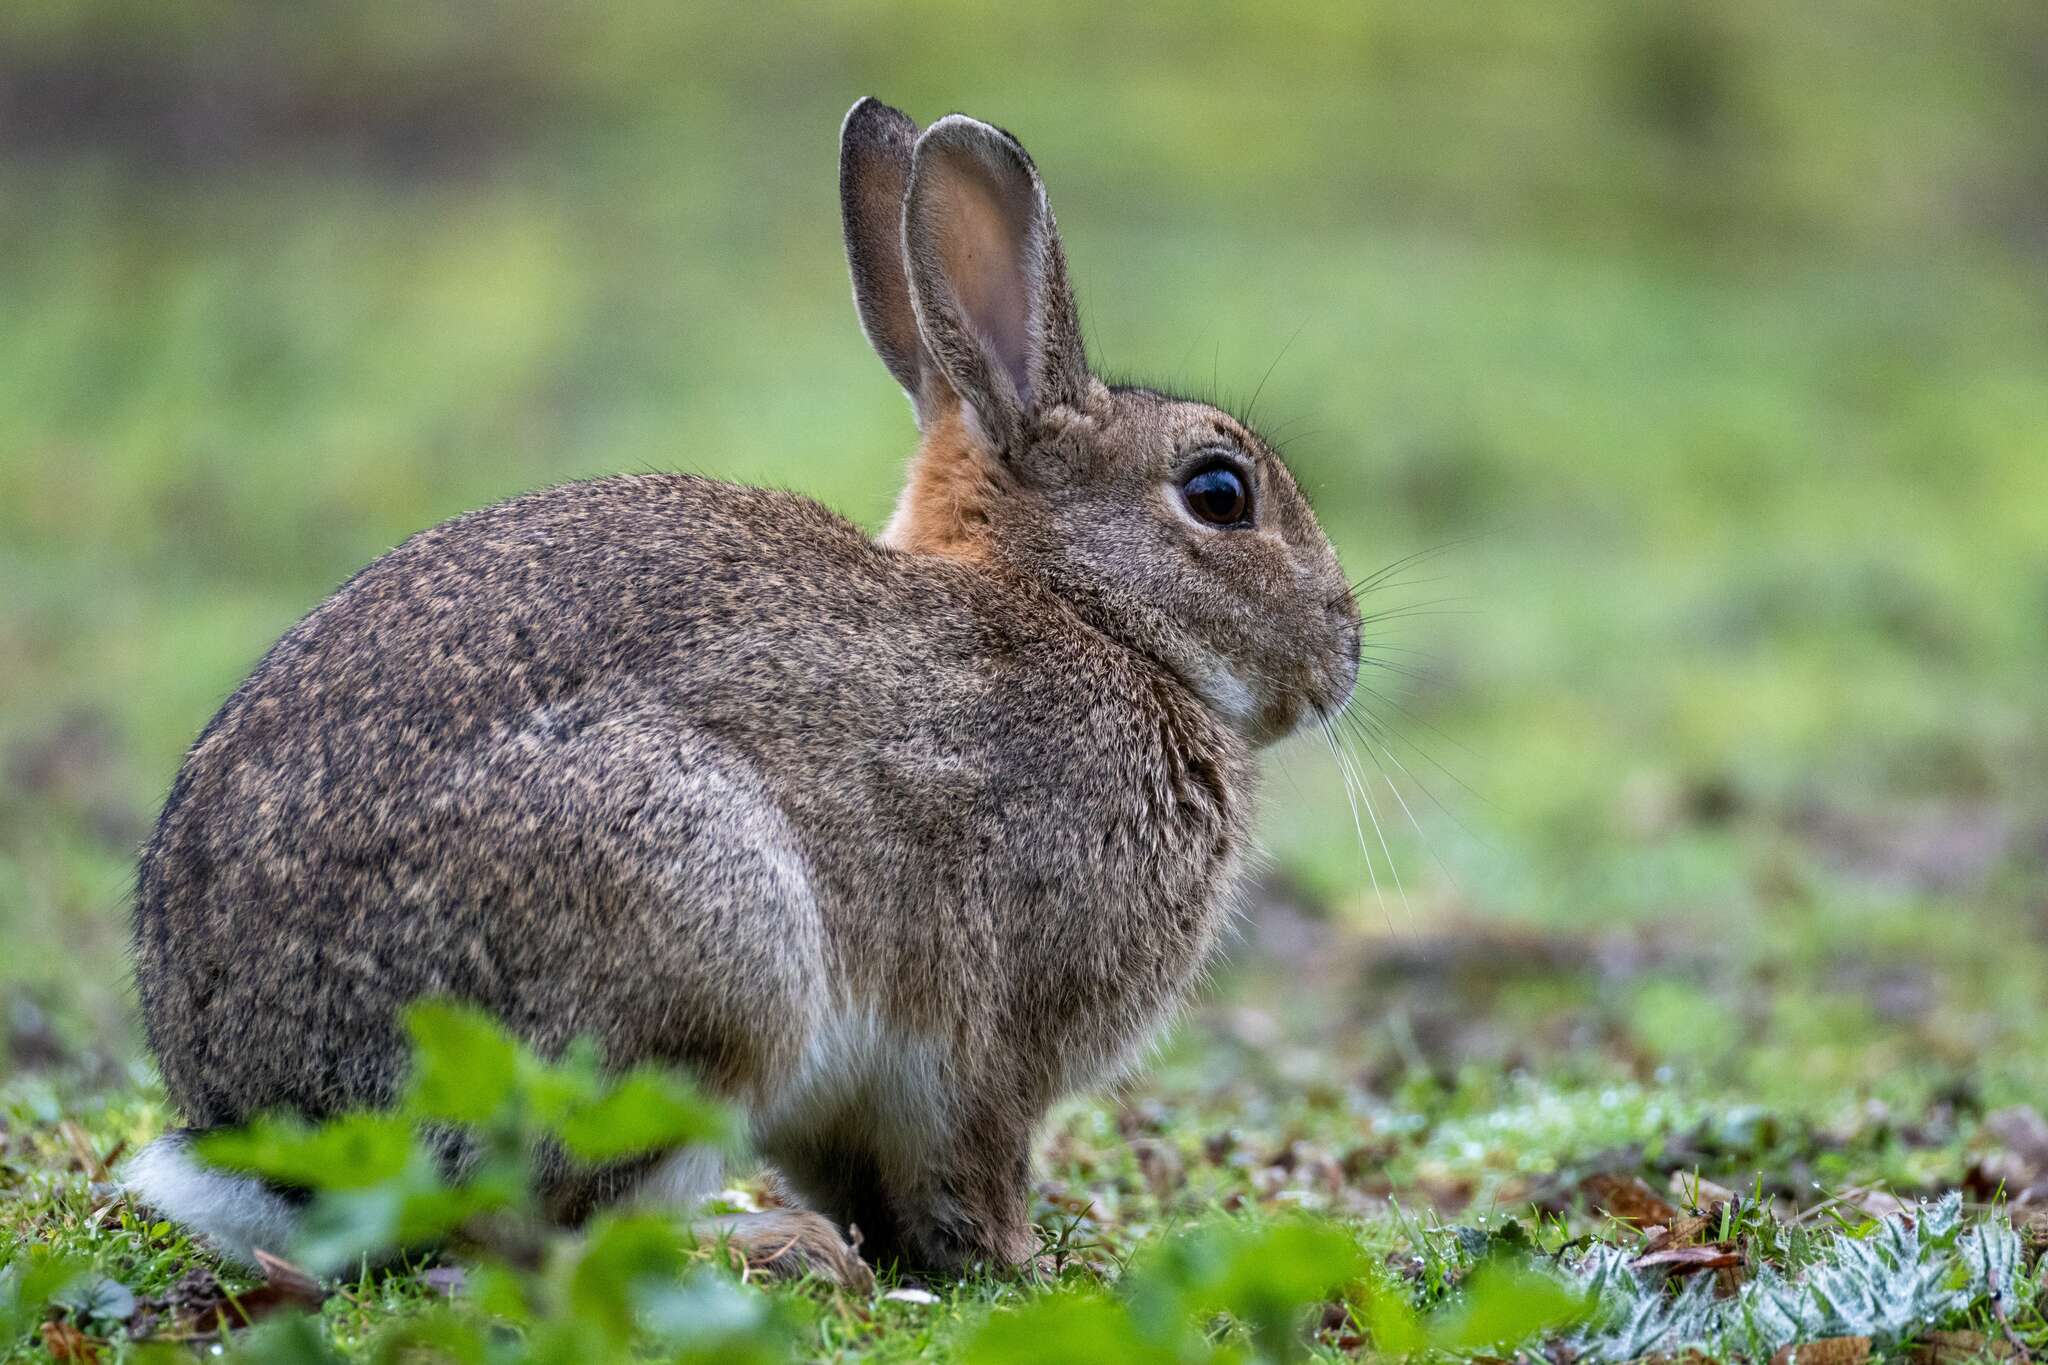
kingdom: Animalia
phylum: Chordata
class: Mammalia
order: Lagomorpha
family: Leporidae
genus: Oryctolagus
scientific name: Oryctolagus cuniculus
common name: European rabbit
